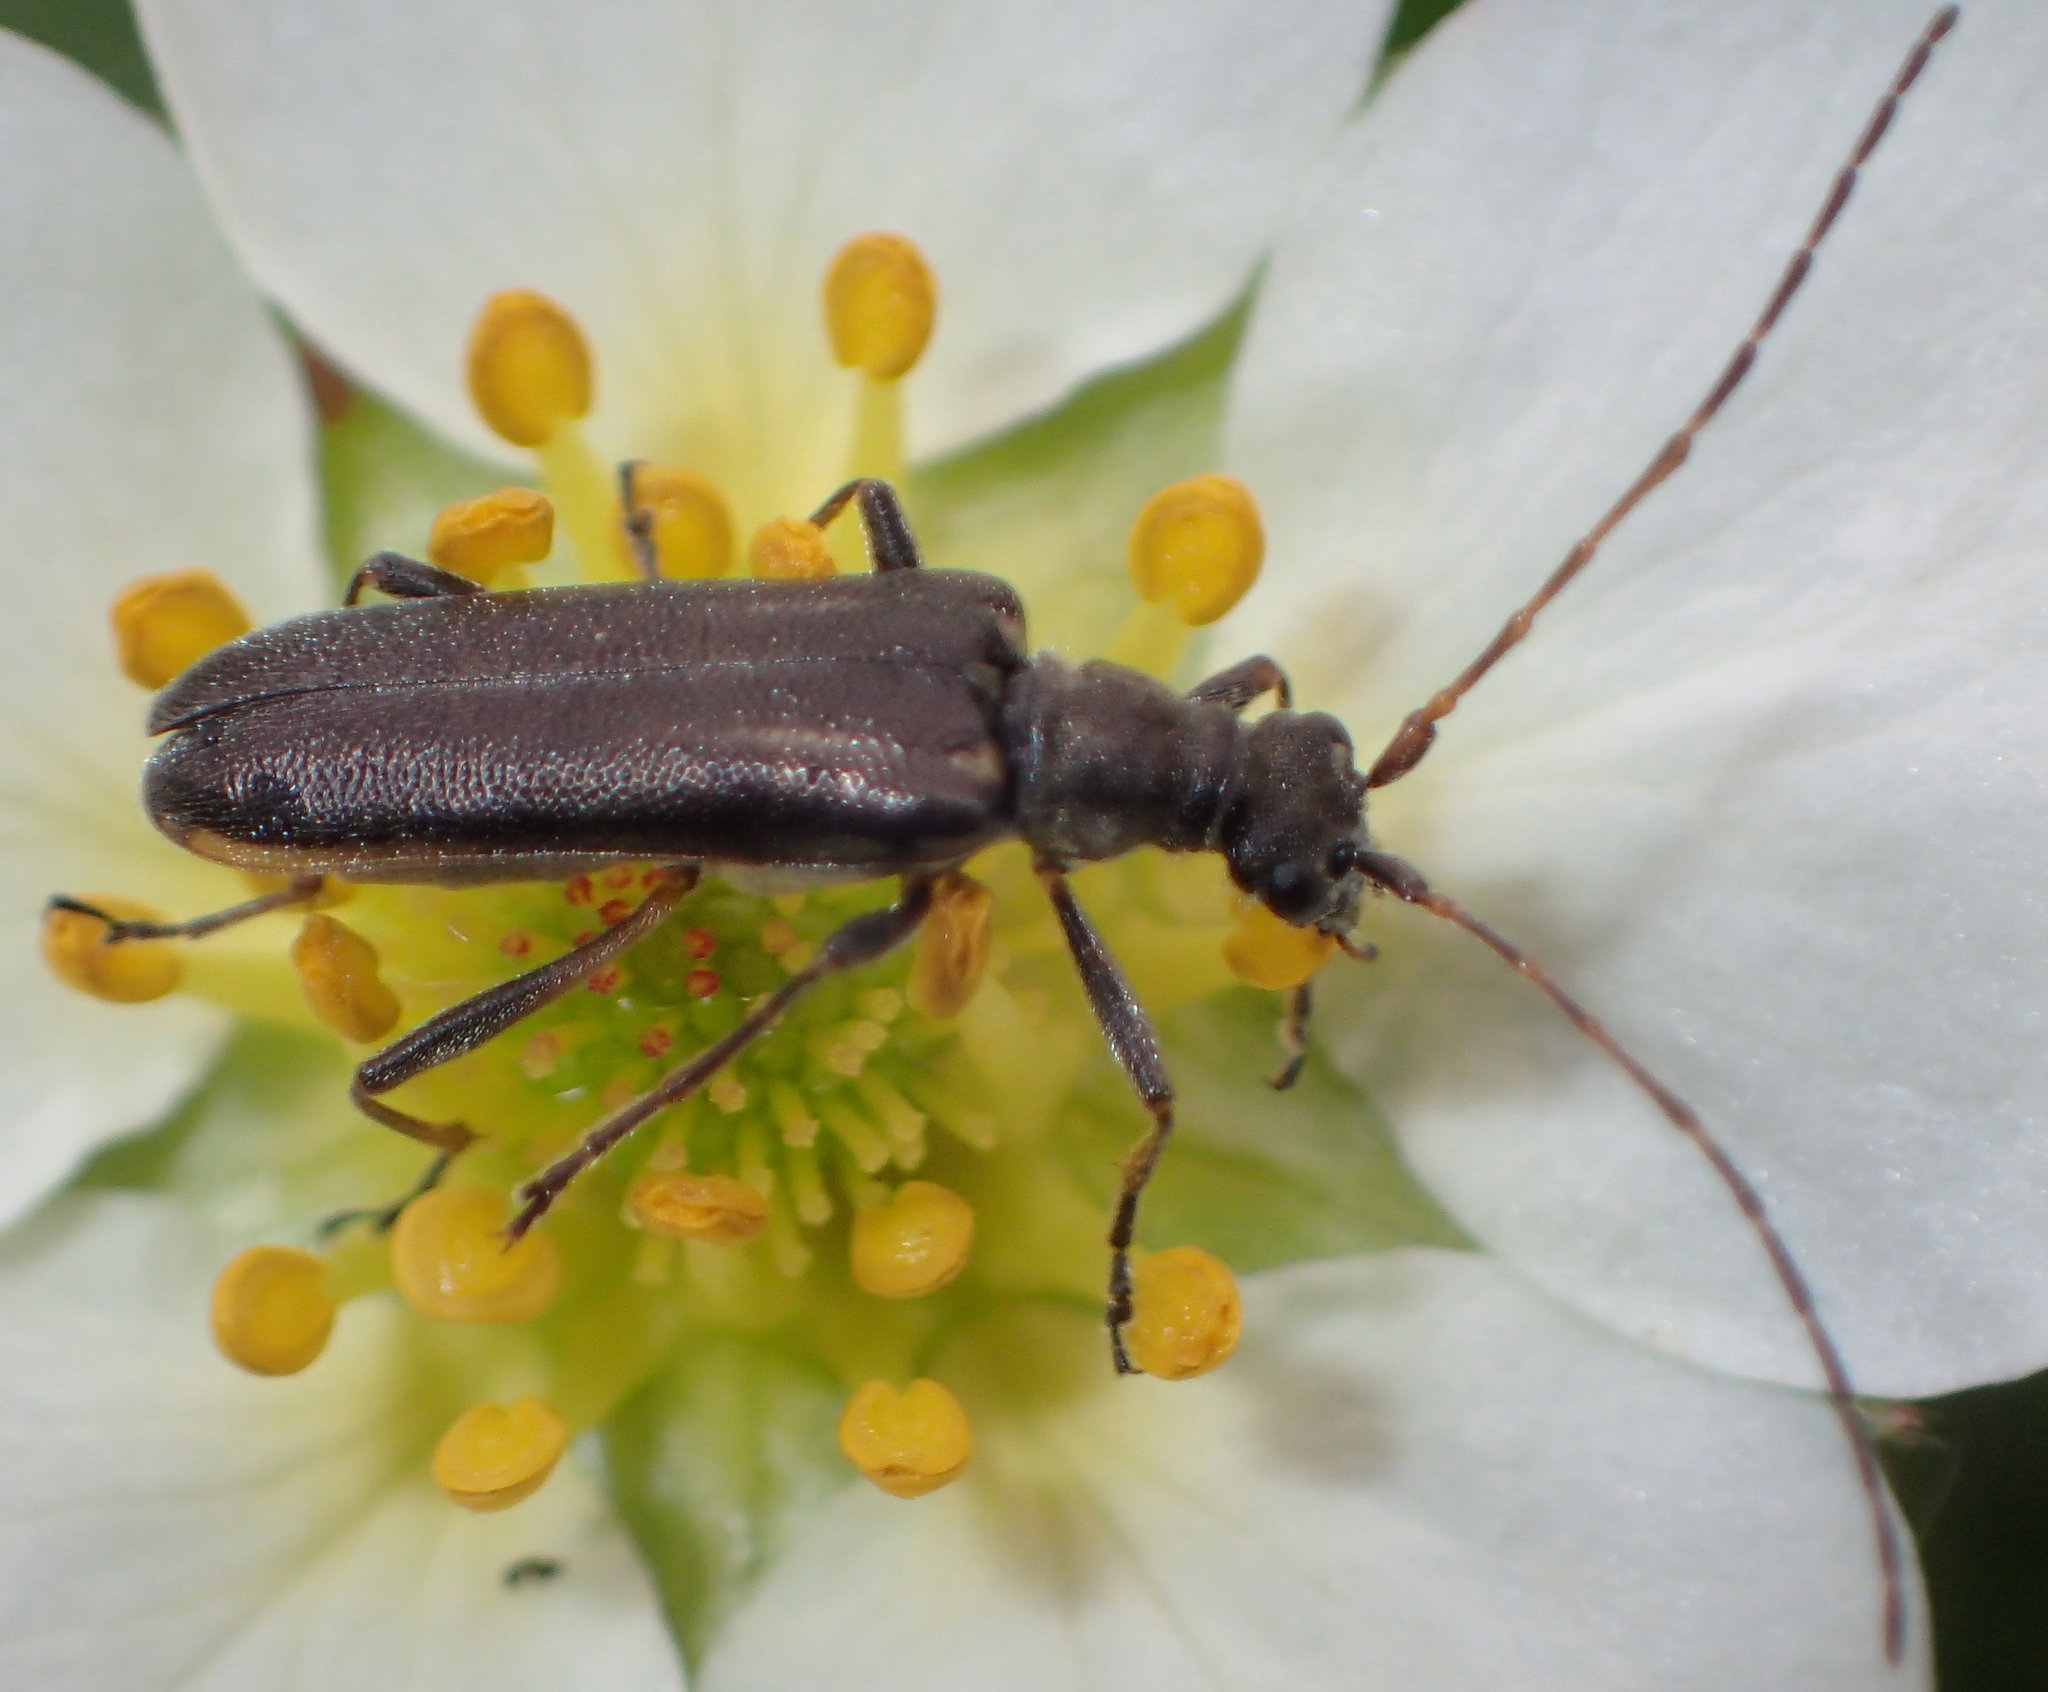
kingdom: Animalia
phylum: Arthropoda
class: Insecta
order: Coleoptera
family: Cerambycidae
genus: Leptalia
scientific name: Leptalia macilenta
